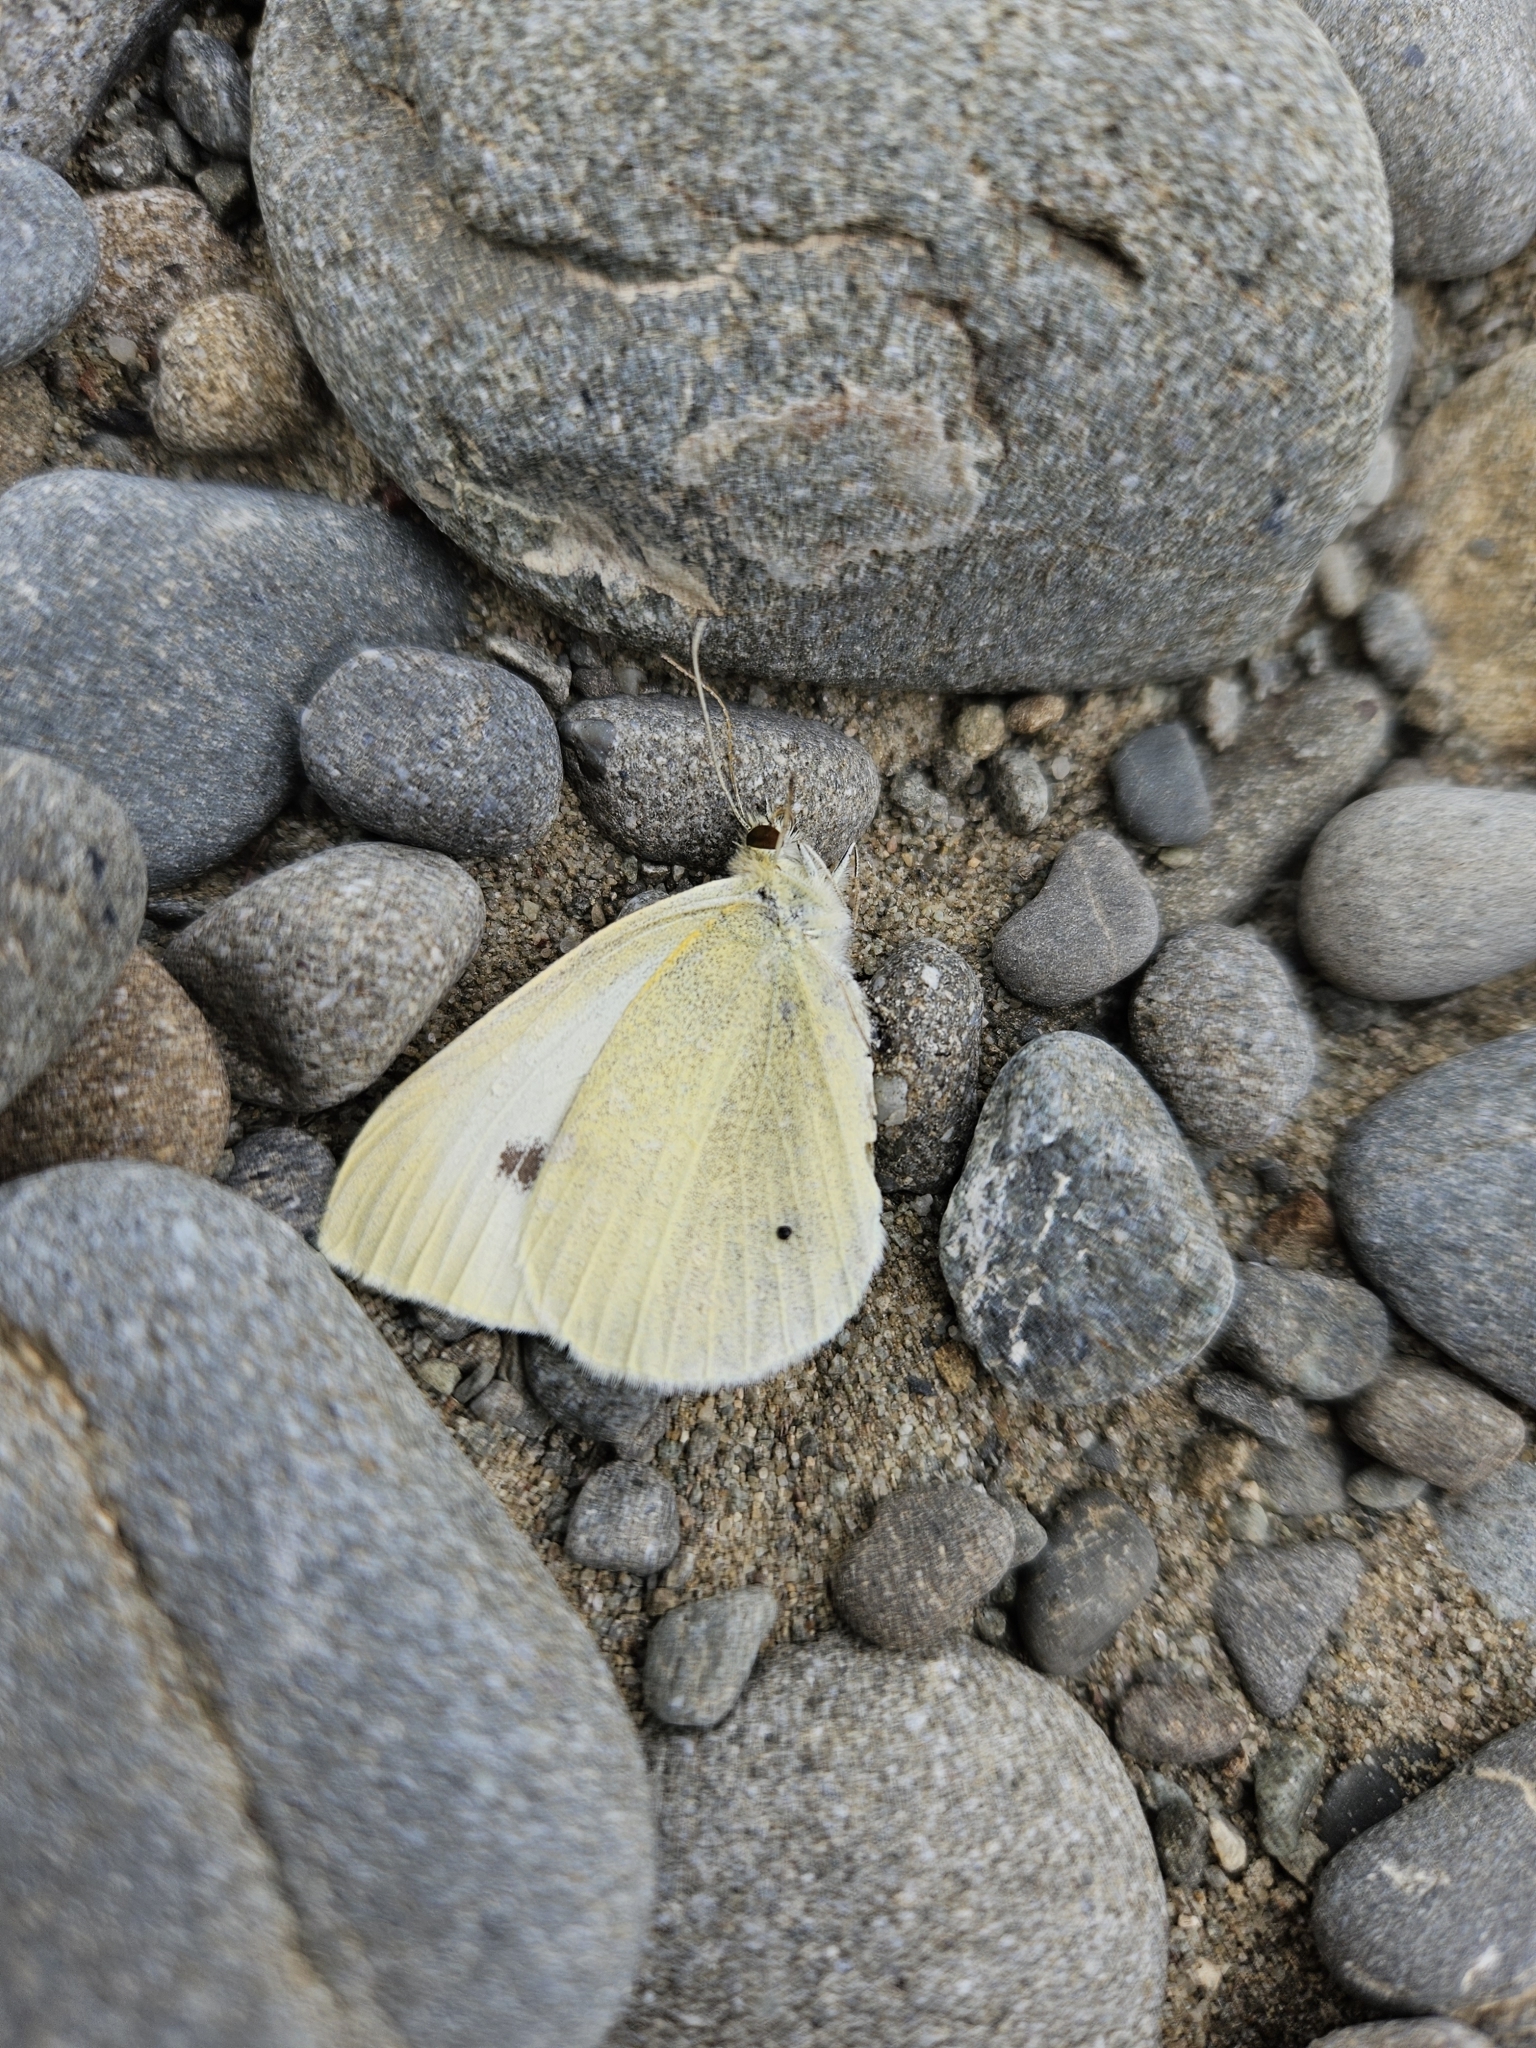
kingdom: Animalia
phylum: Arthropoda
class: Insecta
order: Lepidoptera
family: Pieridae
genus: Pieris
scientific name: Pieris rapae
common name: Small white
